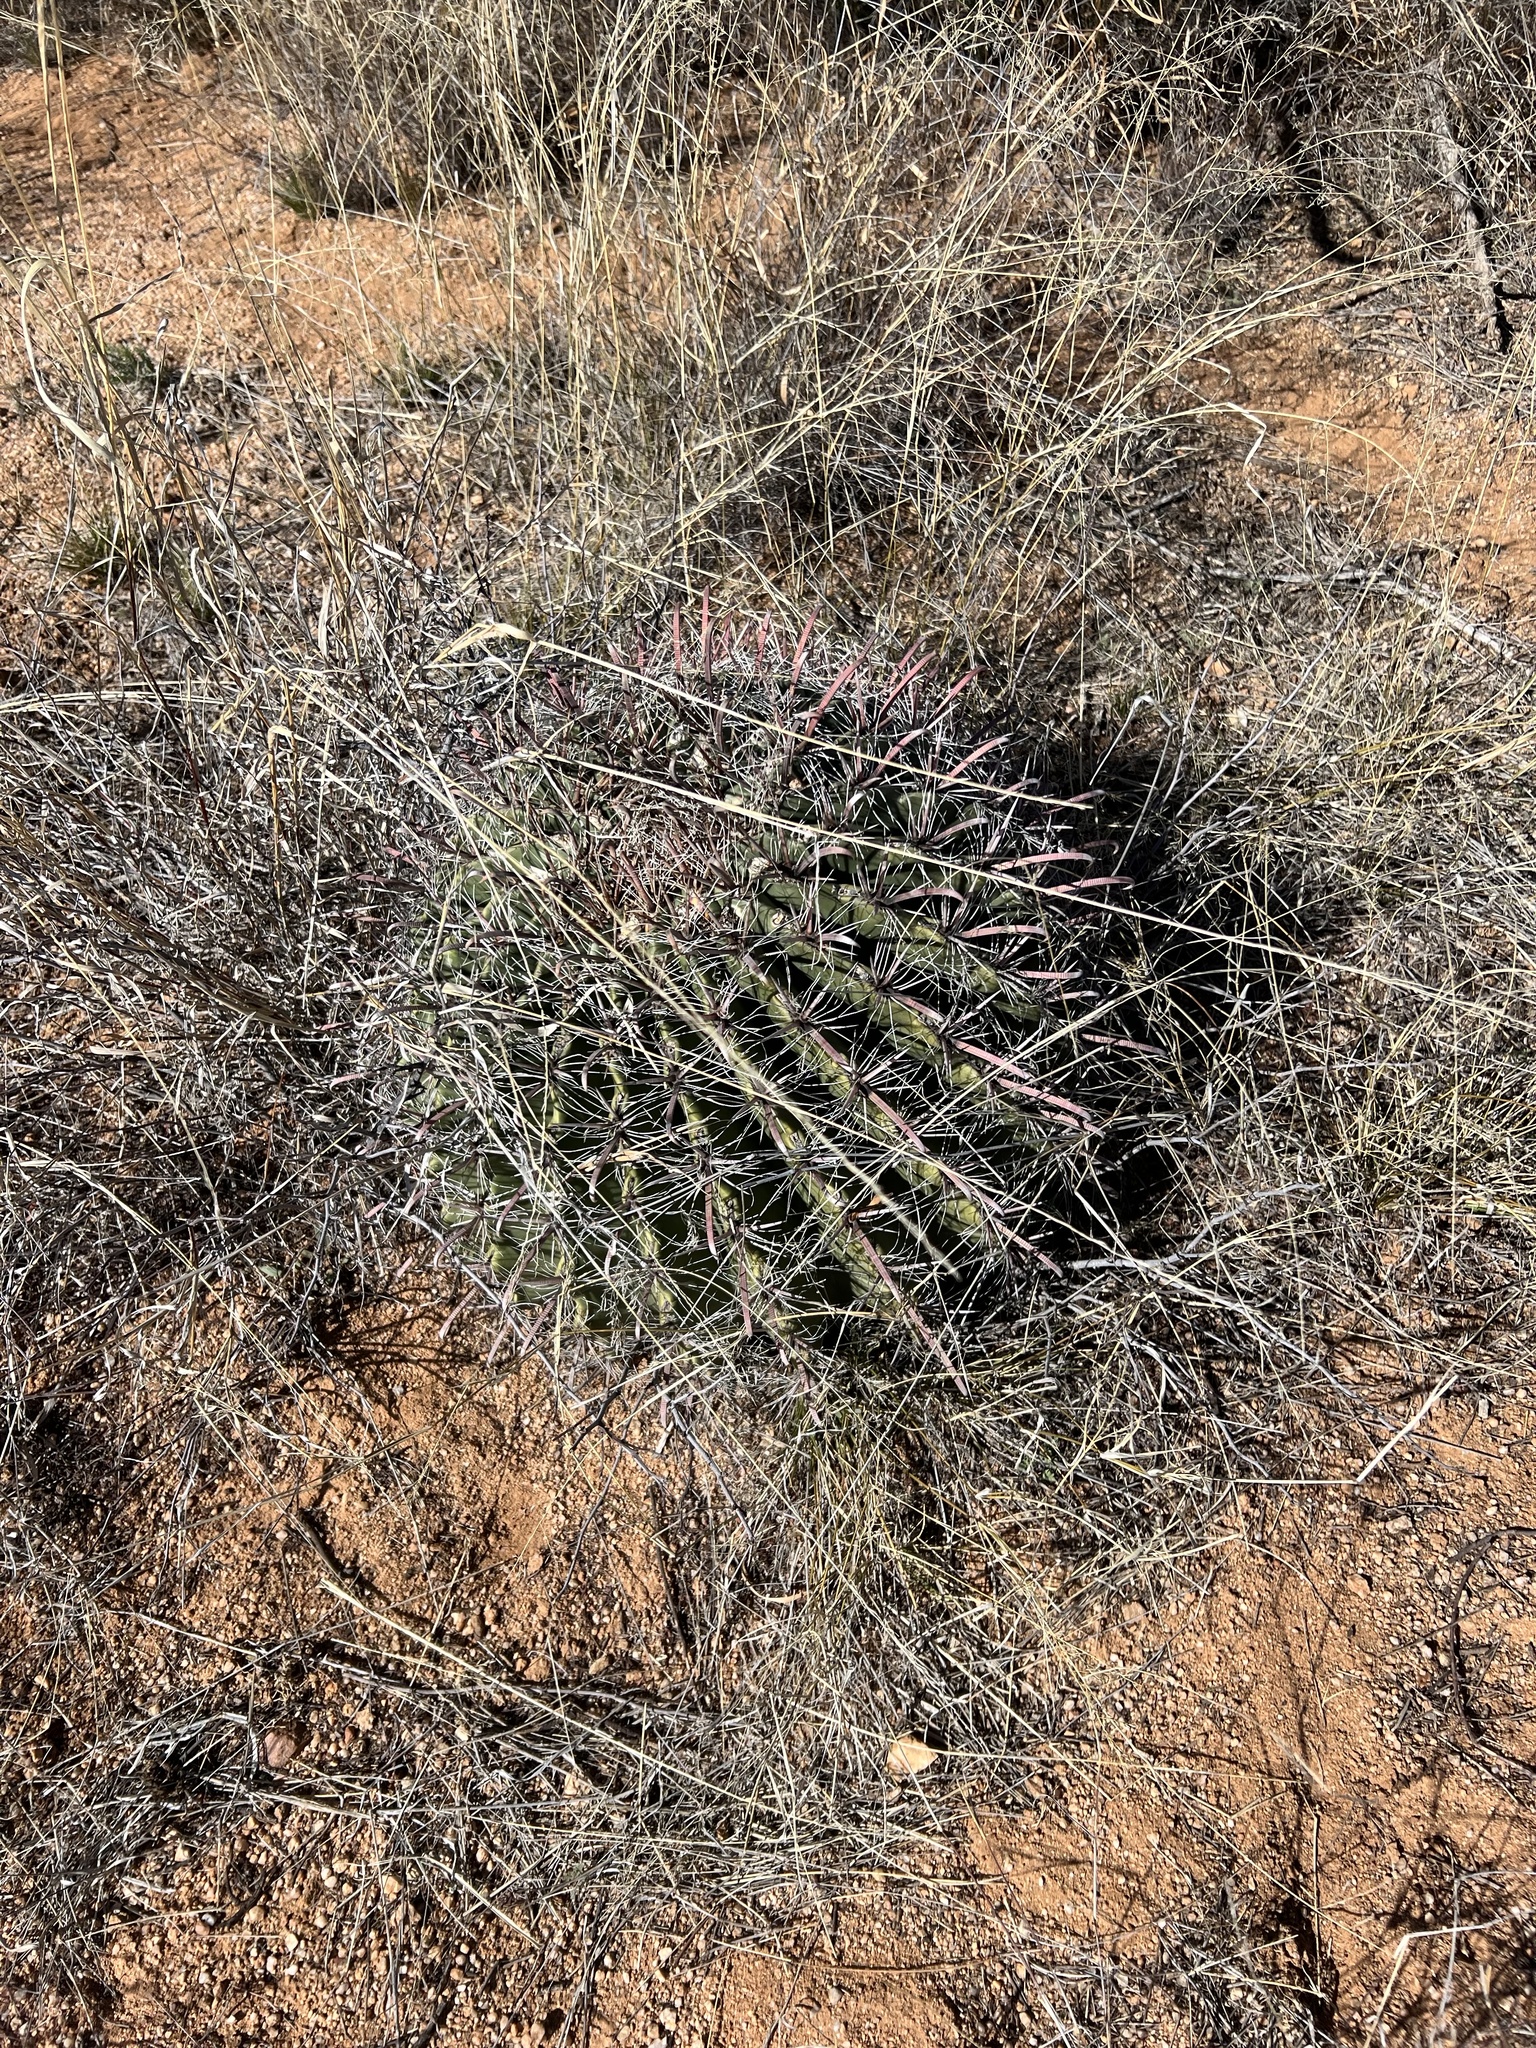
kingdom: Plantae
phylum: Tracheophyta
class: Magnoliopsida
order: Caryophyllales
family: Cactaceae
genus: Ferocactus
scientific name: Ferocactus wislizeni
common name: Candy barrel cactus
